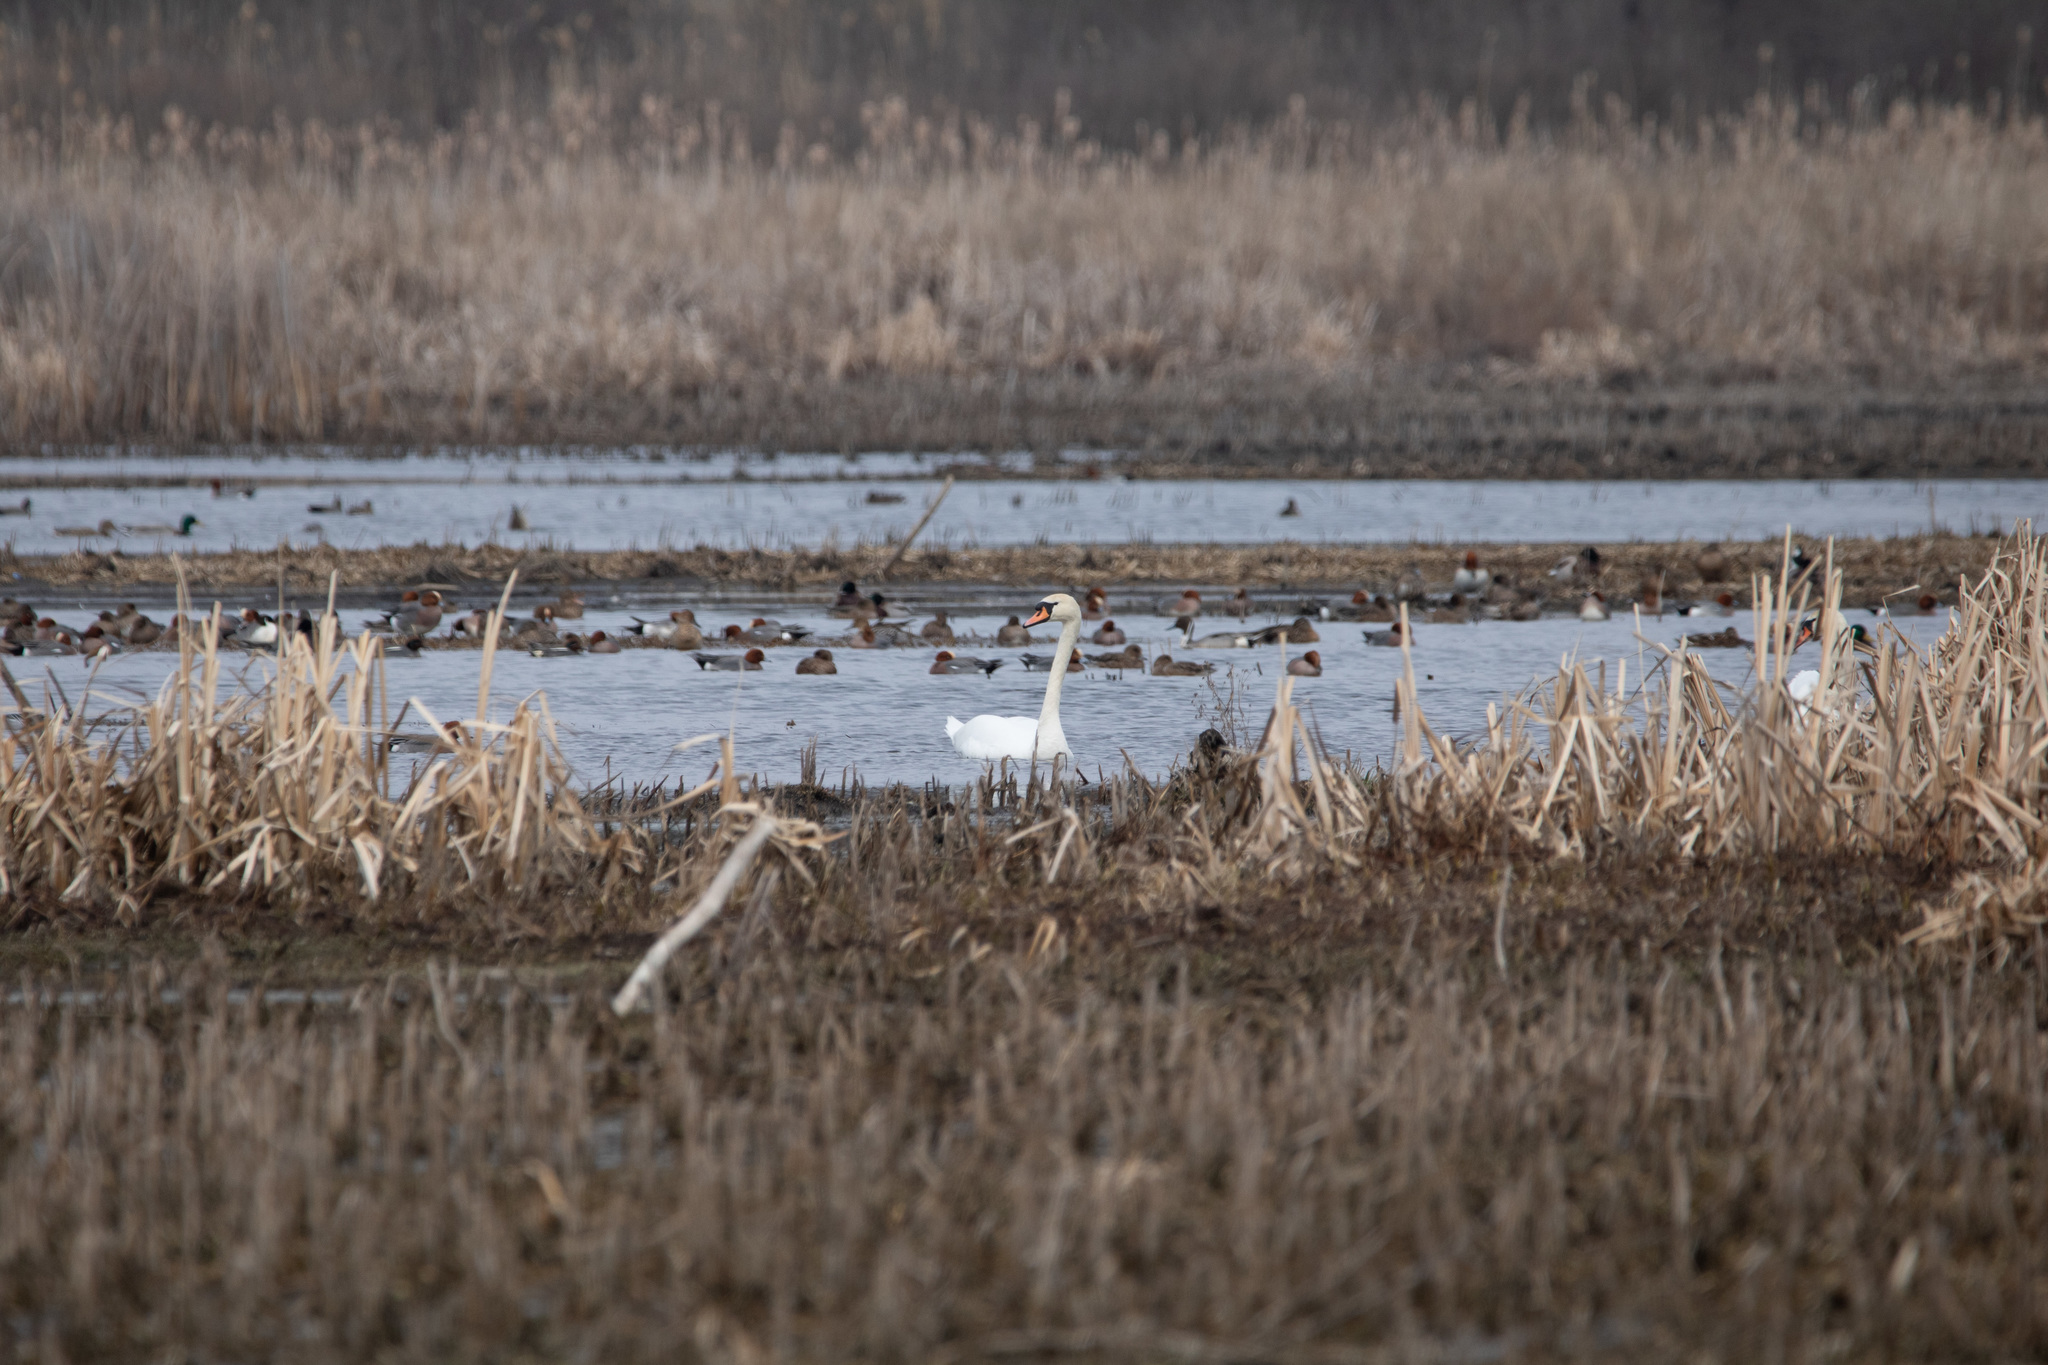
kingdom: Animalia
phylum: Chordata
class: Aves
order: Anseriformes
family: Anatidae
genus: Cygnus
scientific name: Cygnus olor
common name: Mute swan
